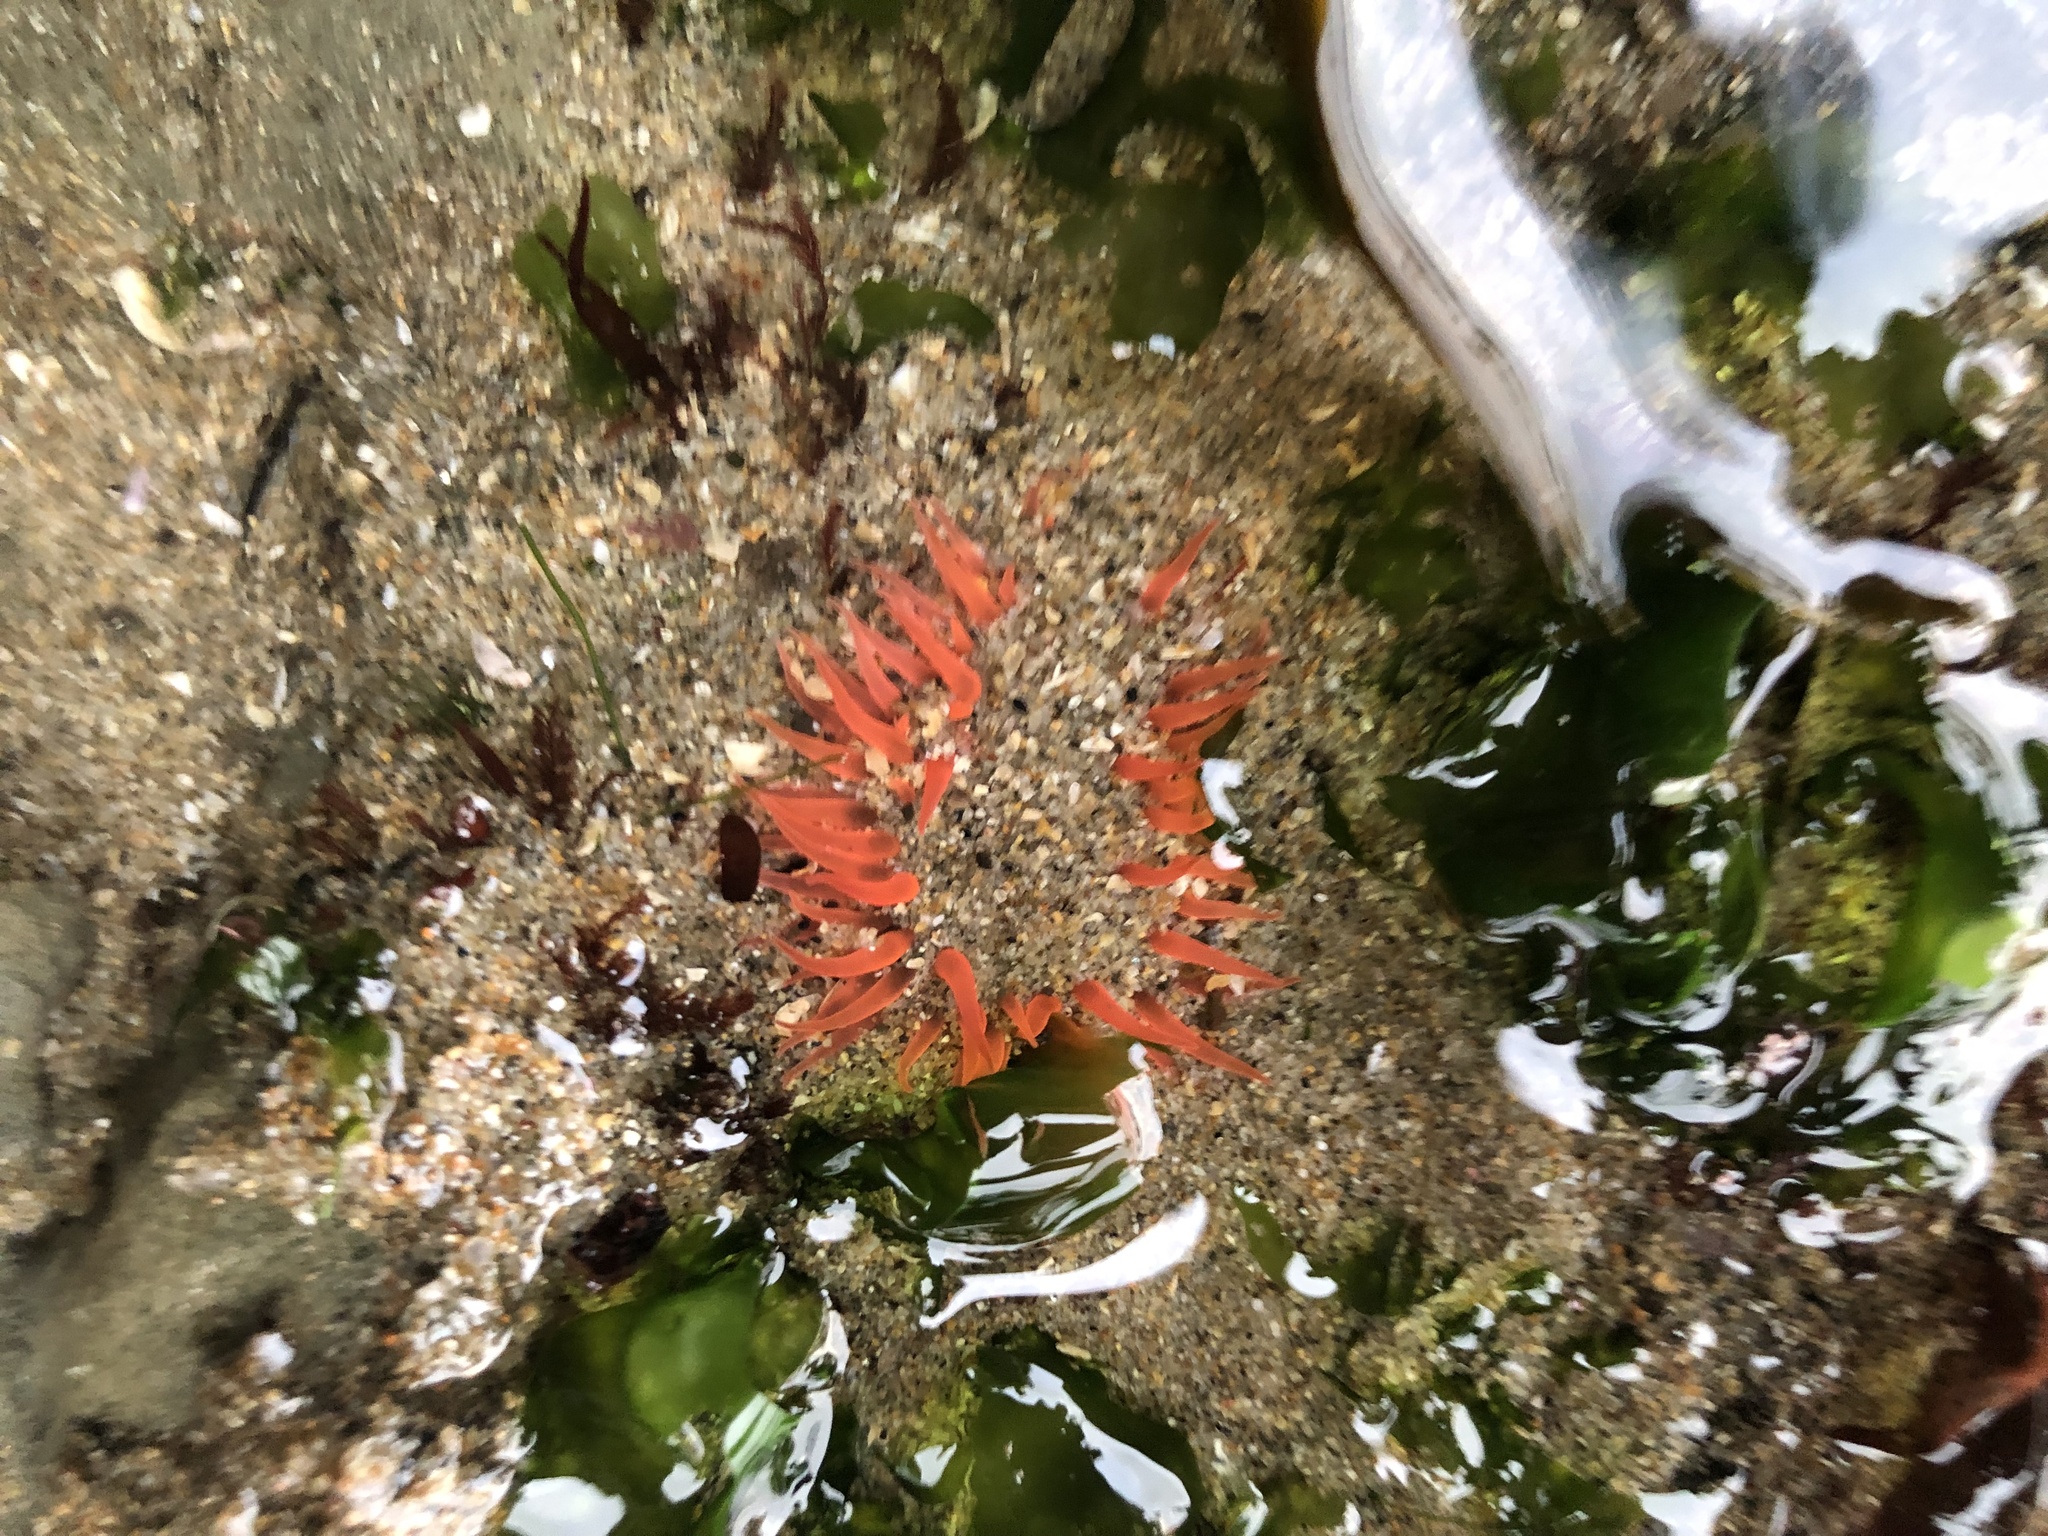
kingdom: Animalia
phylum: Cnidaria
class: Anthozoa
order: Actiniaria
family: Actiniidae
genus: Anthopleura
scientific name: Anthopleura artemisia
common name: Buried sea anemone
